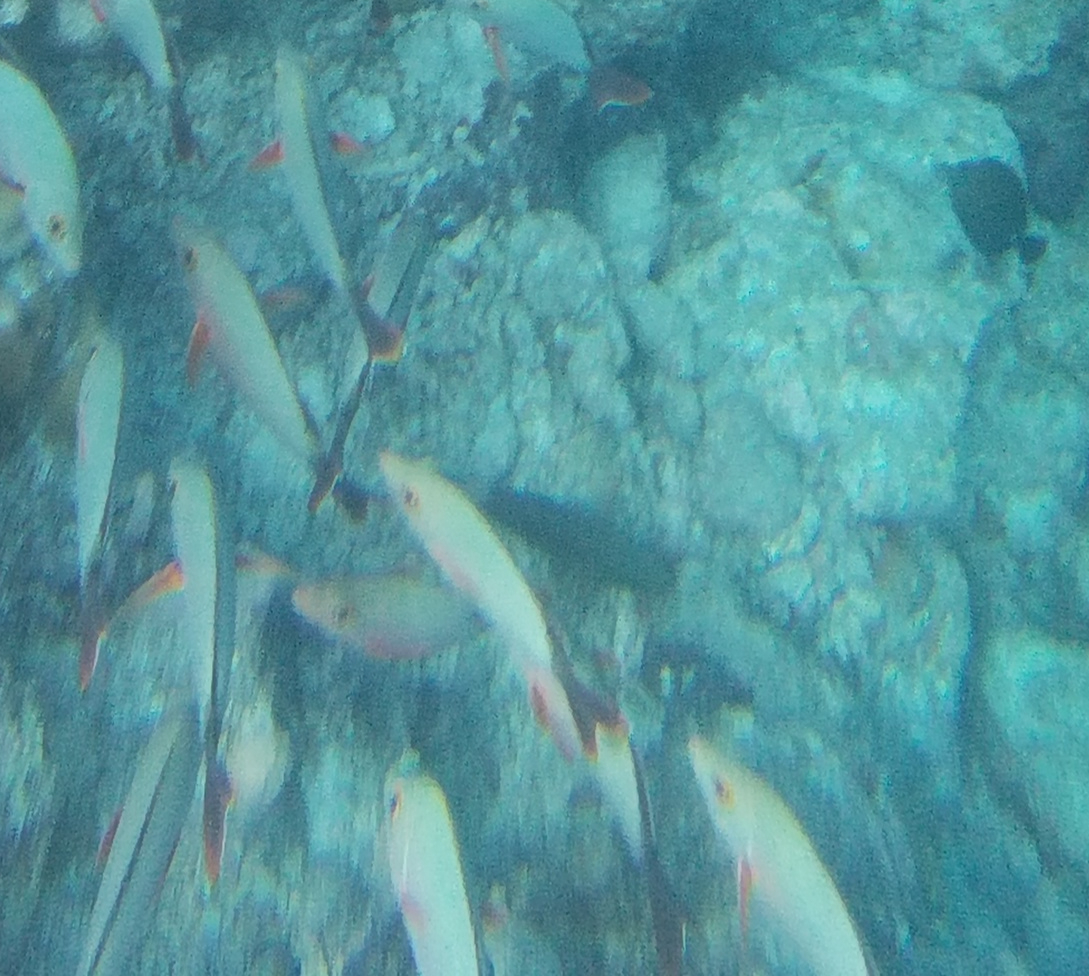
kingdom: Animalia
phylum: Chordata
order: Perciformes
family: Lutjanidae
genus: Lutjanus
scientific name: Lutjanus gibbus
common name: Humpback snapper
